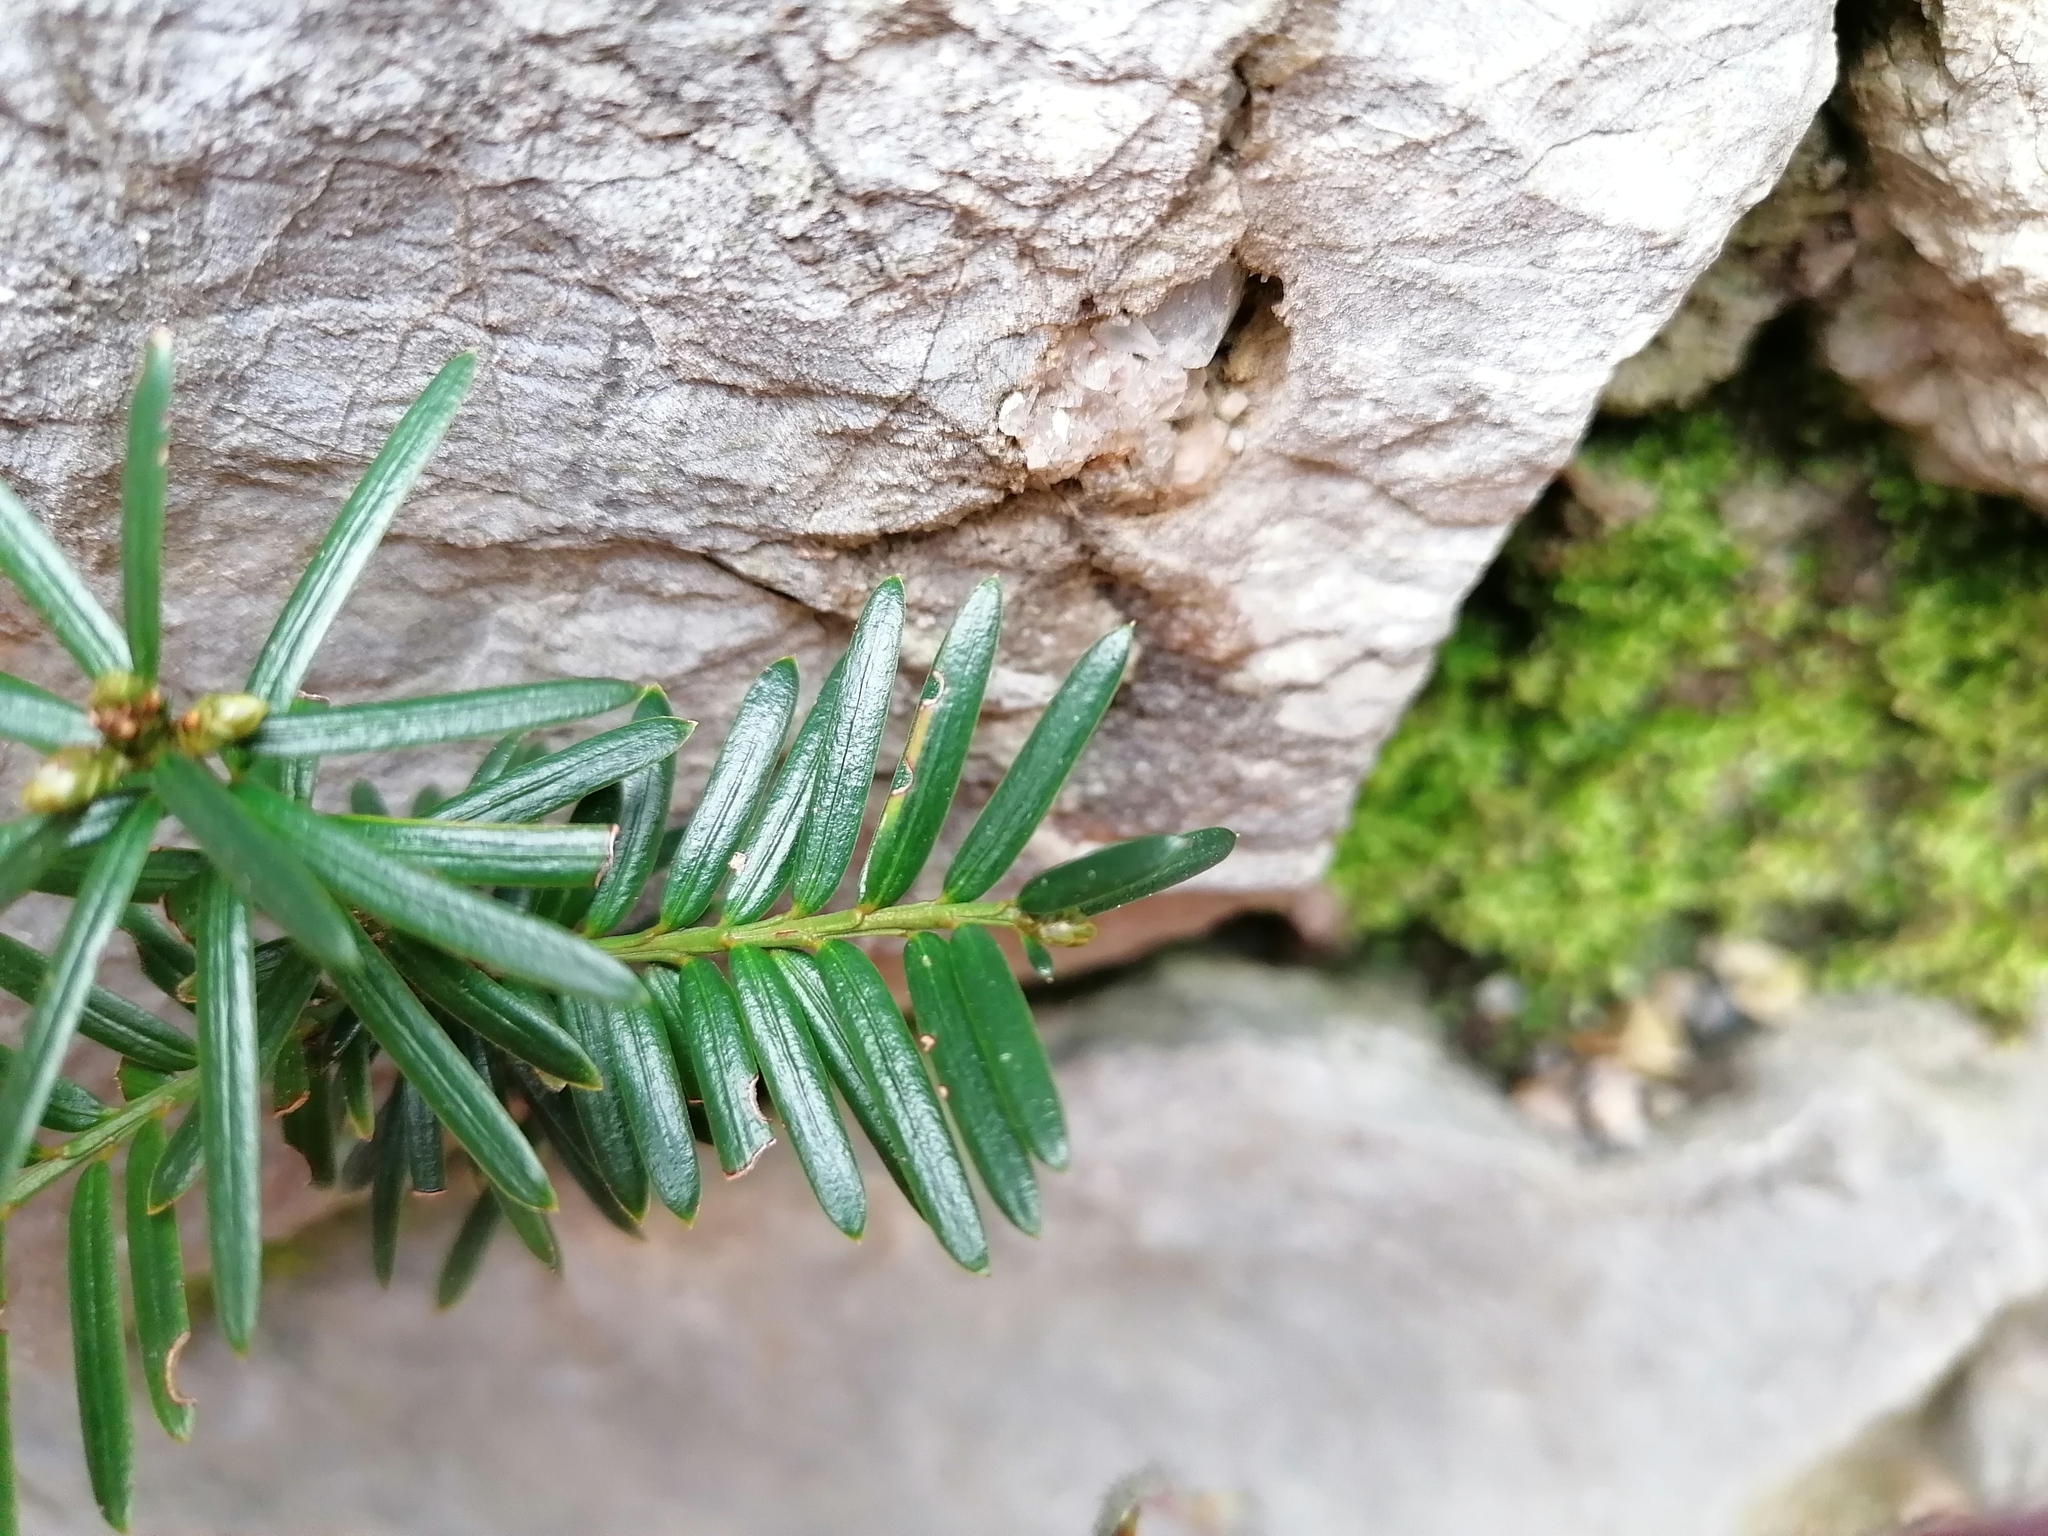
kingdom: Plantae
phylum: Tracheophyta
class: Pinopsida
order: Pinales
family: Taxaceae
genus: Taxus
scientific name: Taxus baccata
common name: Yew
